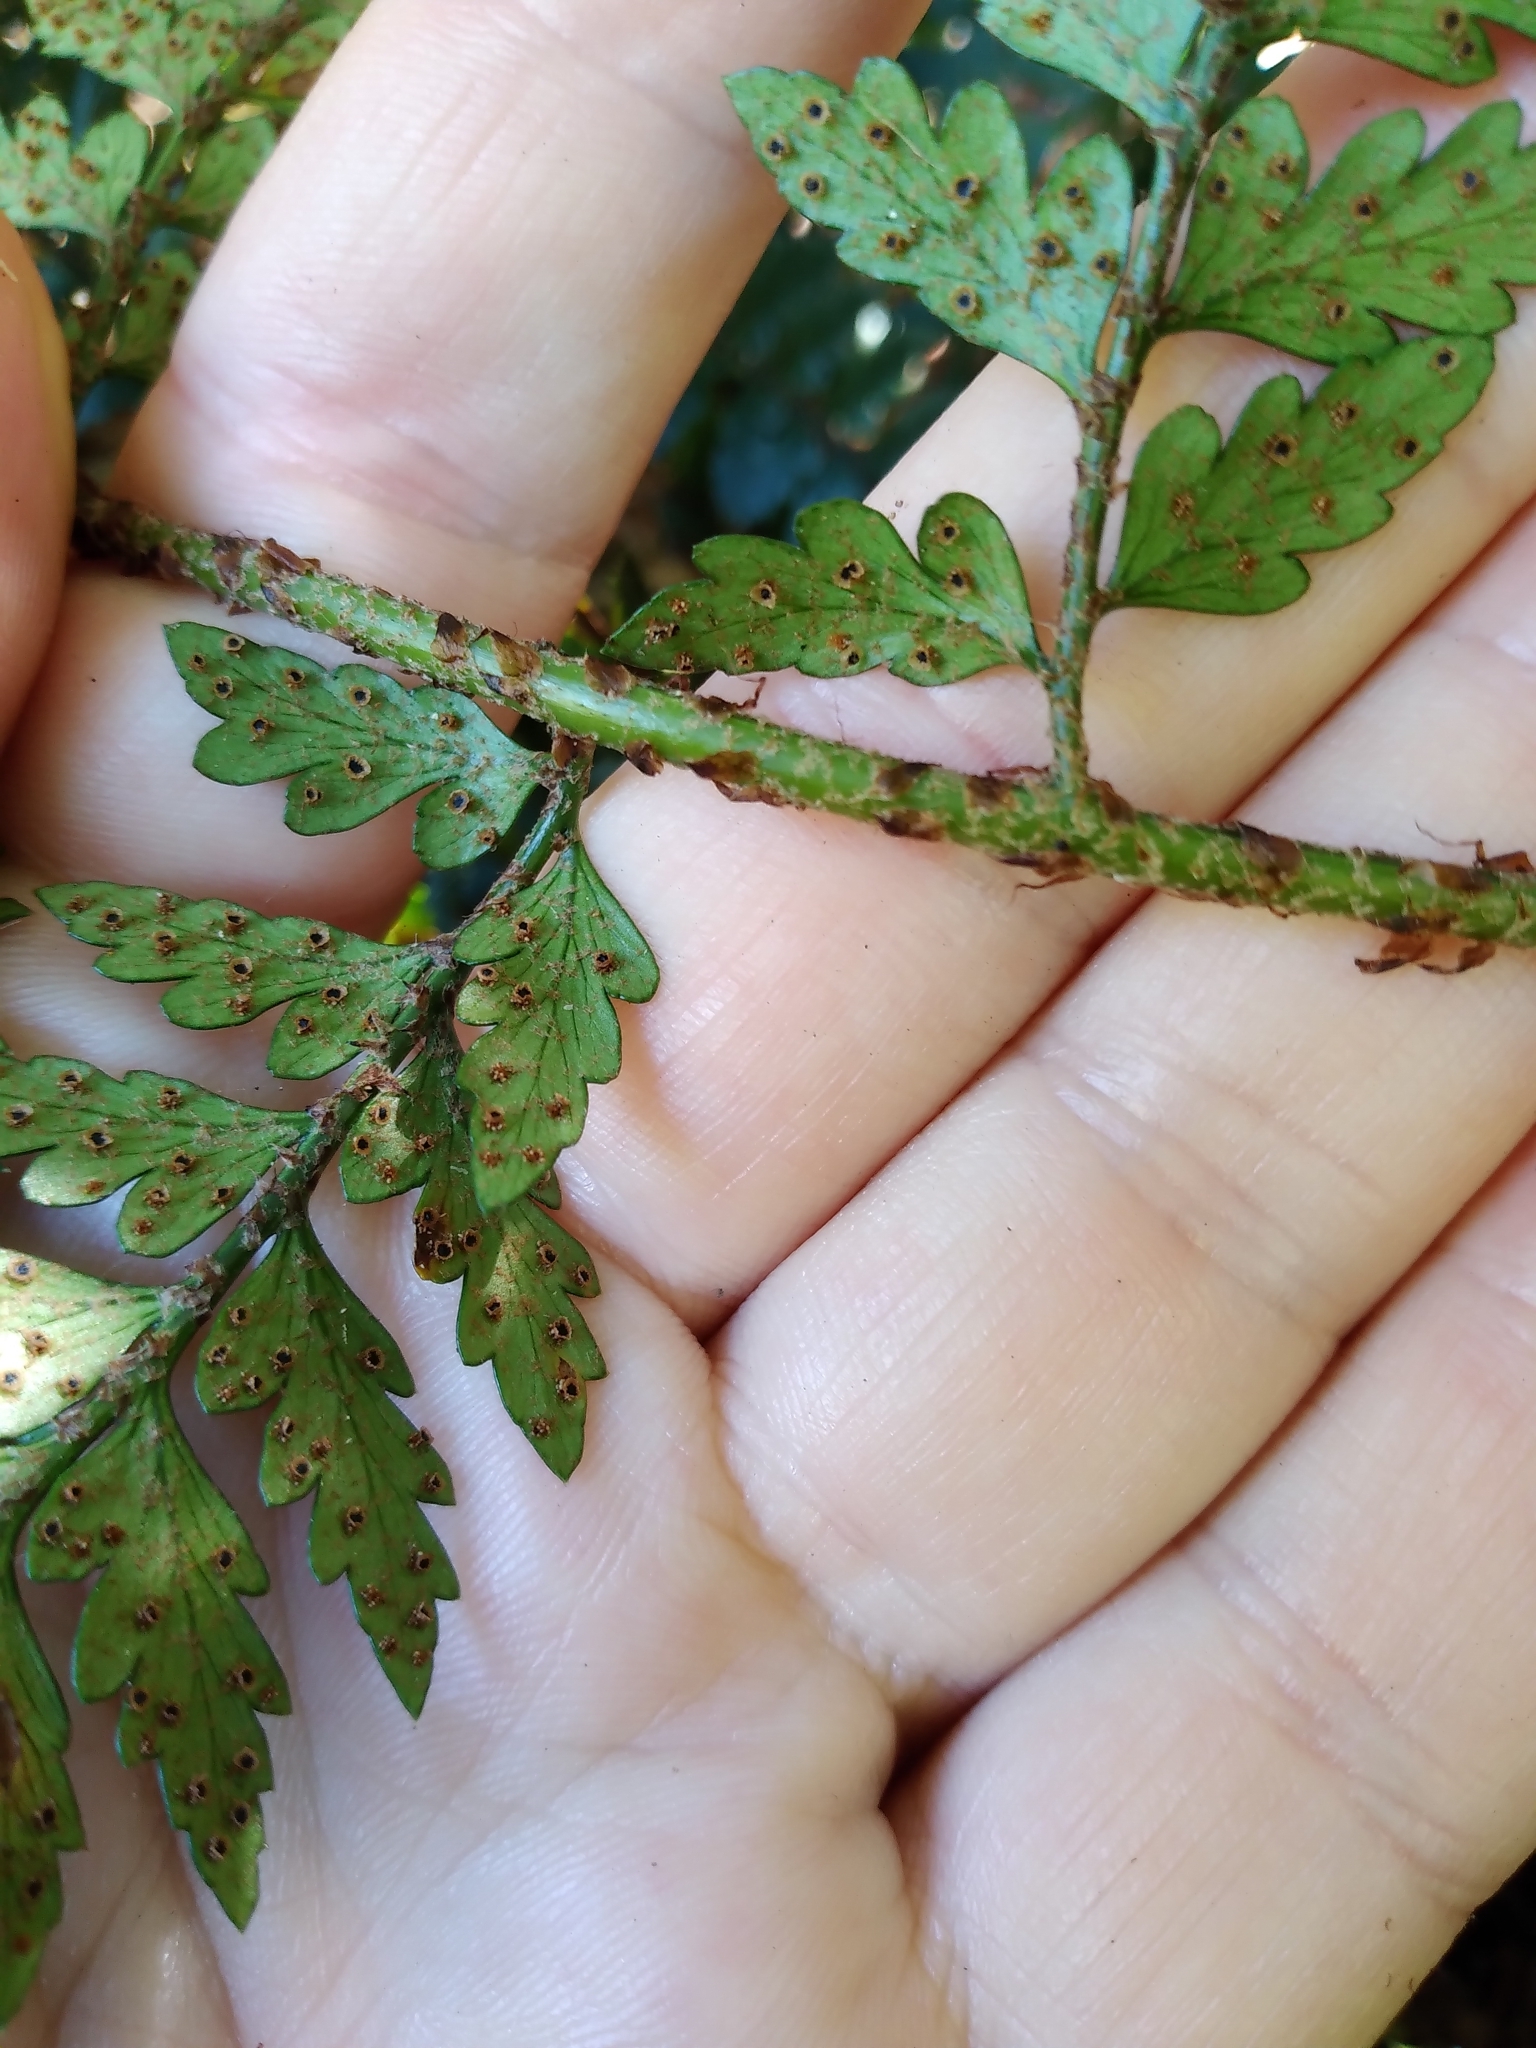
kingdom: Plantae
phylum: Tracheophyta
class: Polypodiopsida
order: Polypodiales
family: Dryopteridaceae
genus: Polystichum
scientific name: Polystichum oculatum
